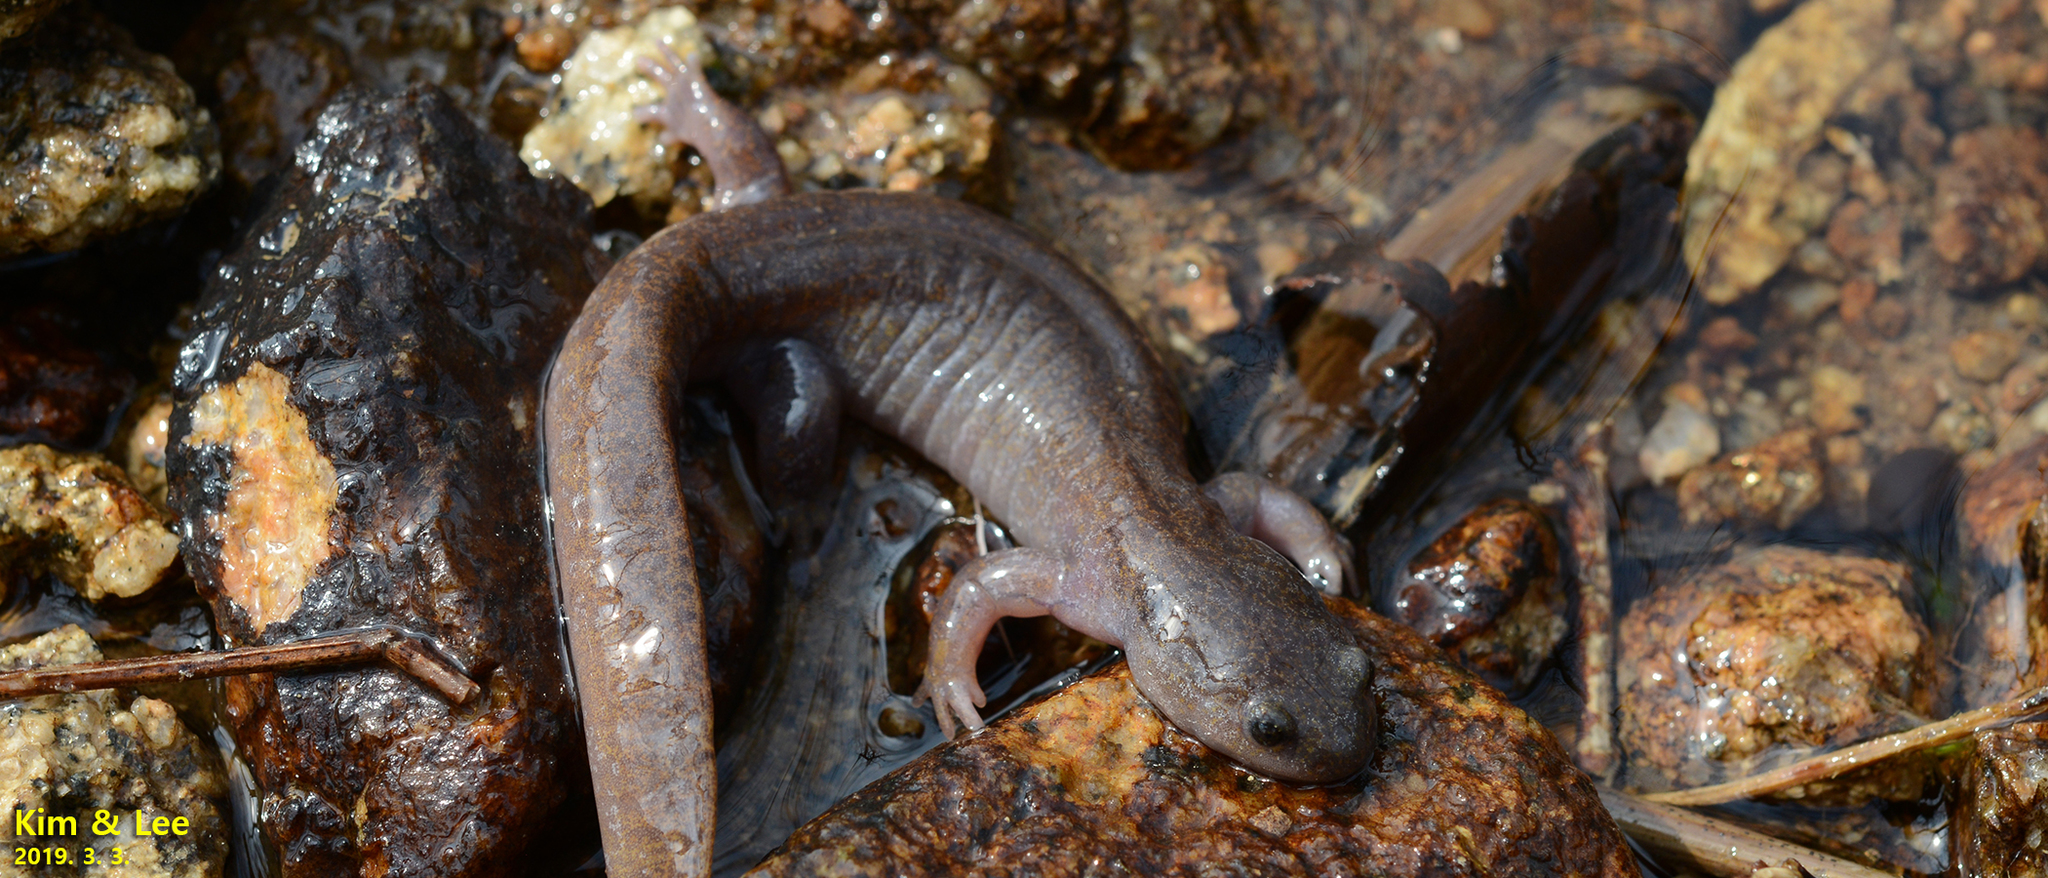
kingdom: Animalia
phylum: Chordata
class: Amphibia
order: Caudata
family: Hynobiidae
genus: Hynobius
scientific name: Hynobius perplicatus
